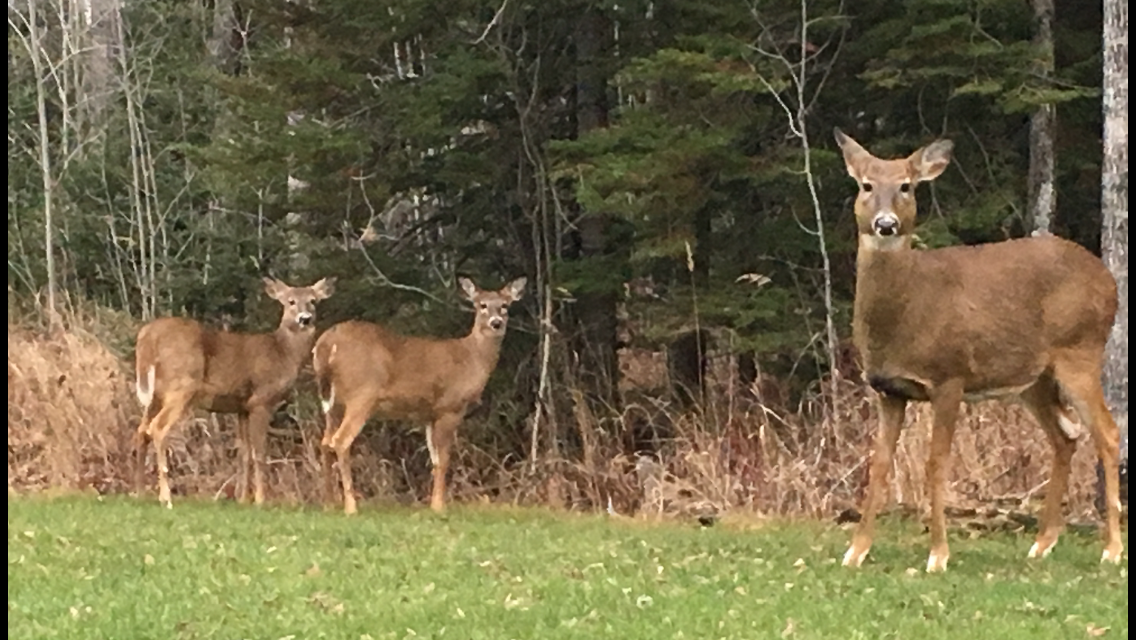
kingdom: Animalia
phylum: Chordata
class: Mammalia
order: Artiodactyla
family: Cervidae
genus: Odocoileus
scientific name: Odocoileus virginianus
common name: White-tailed deer
